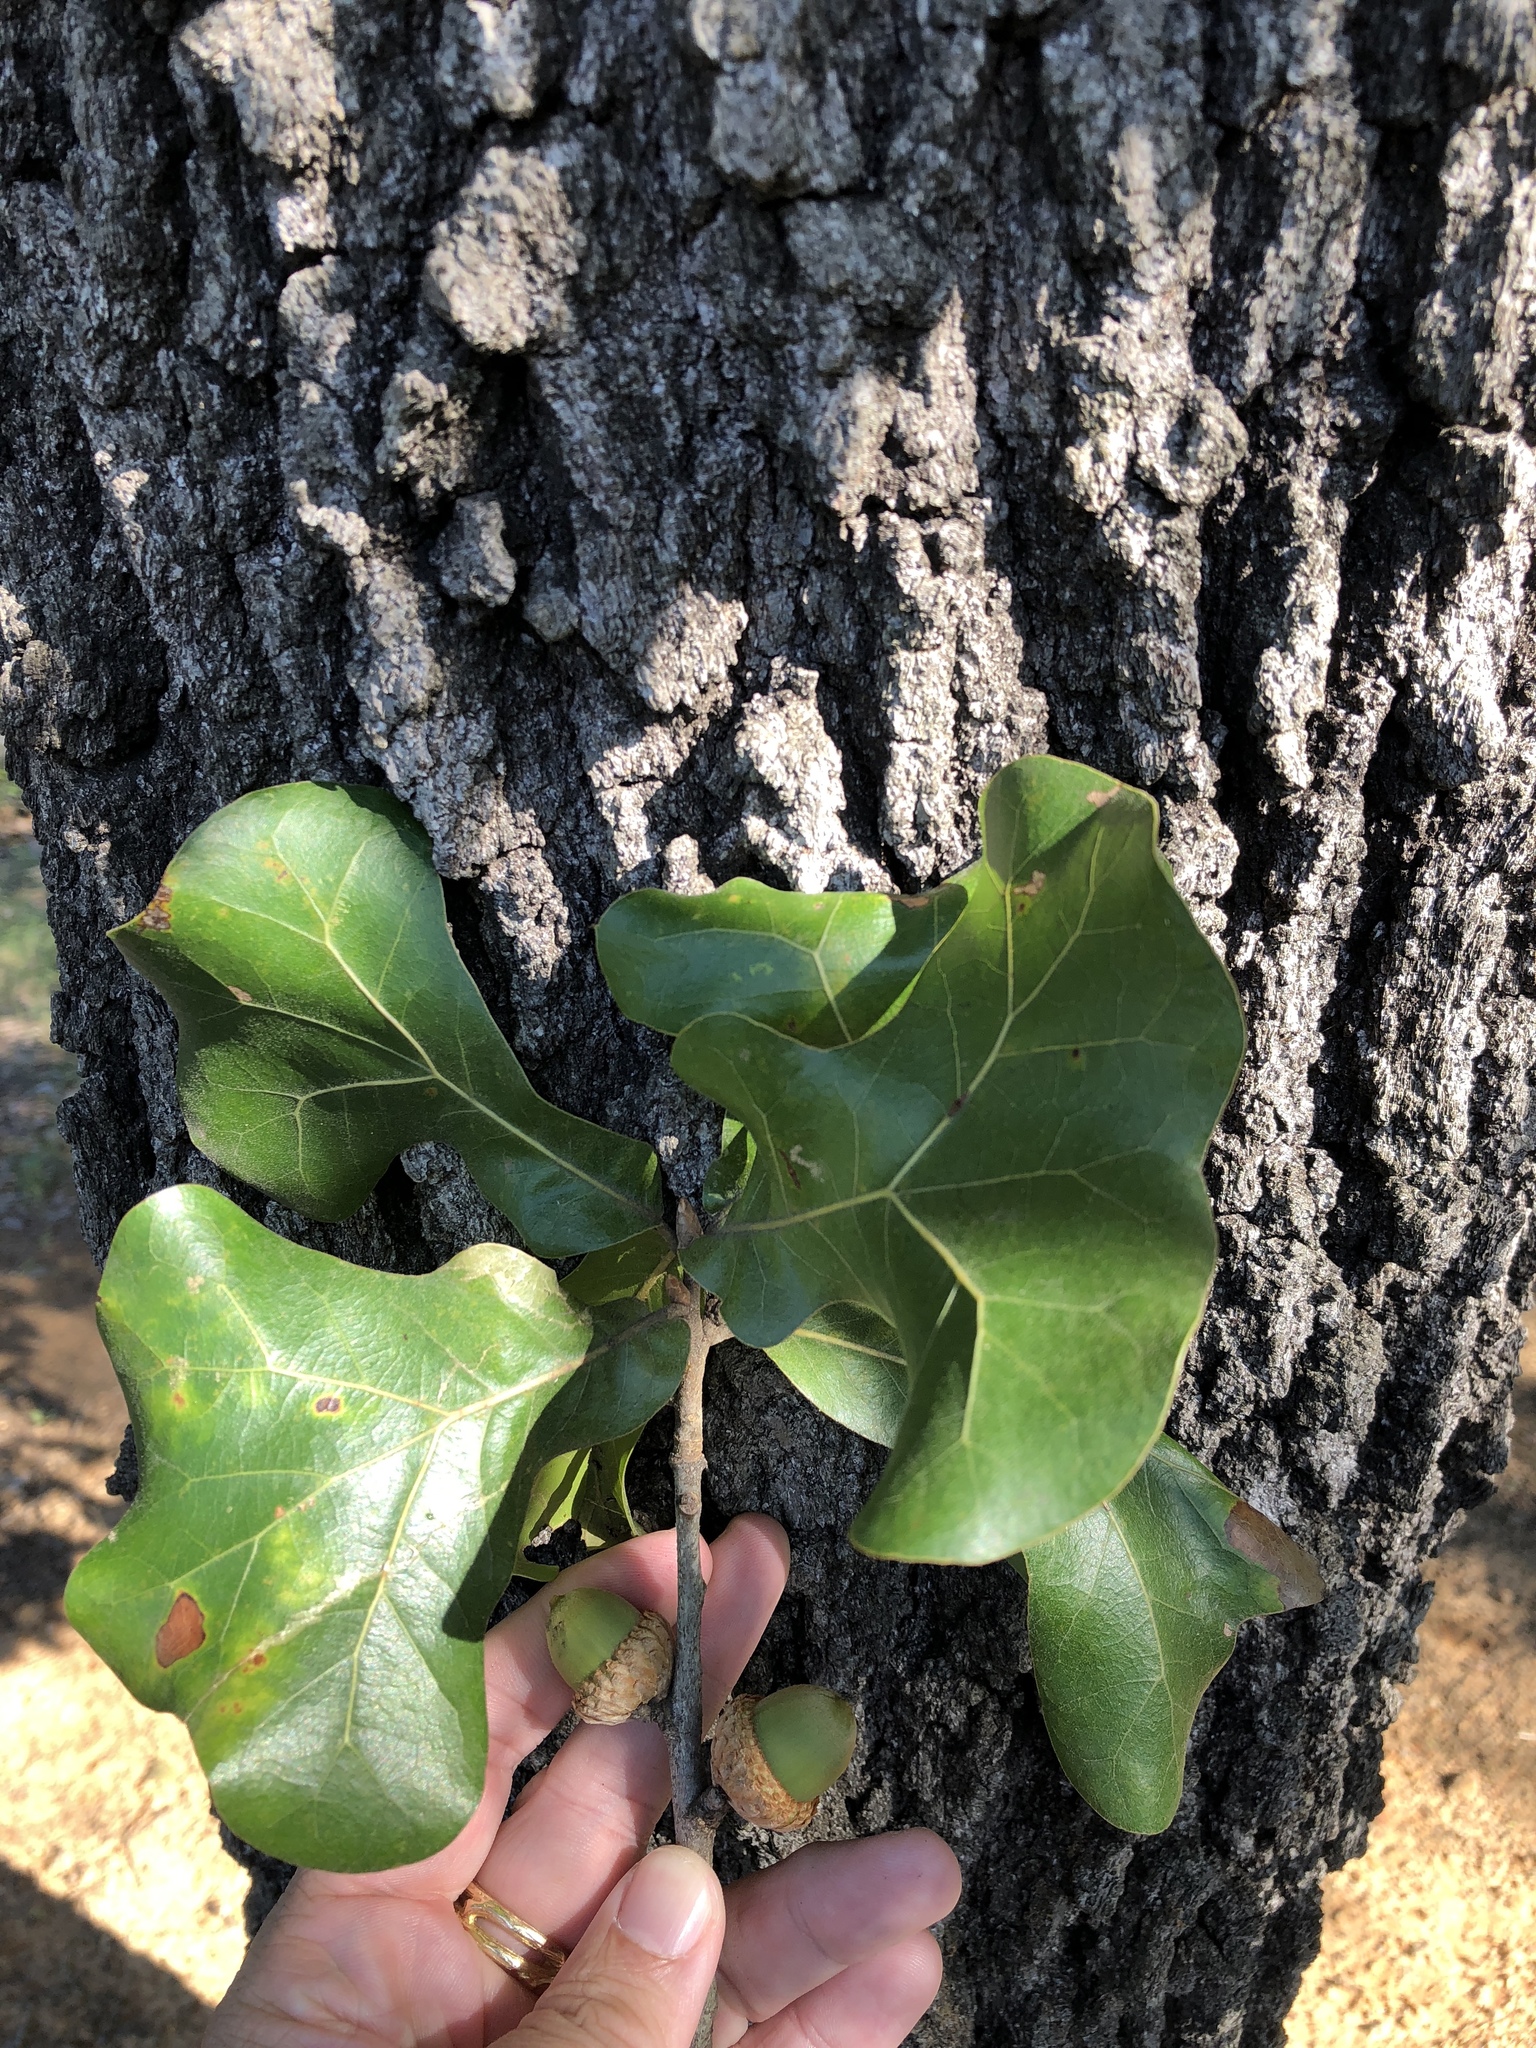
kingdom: Plantae
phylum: Tracheophyta
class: Magnoliopsida
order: Fagales
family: Fagaceae
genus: Quercus
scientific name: Quercus marilandica
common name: Blackjack oak
